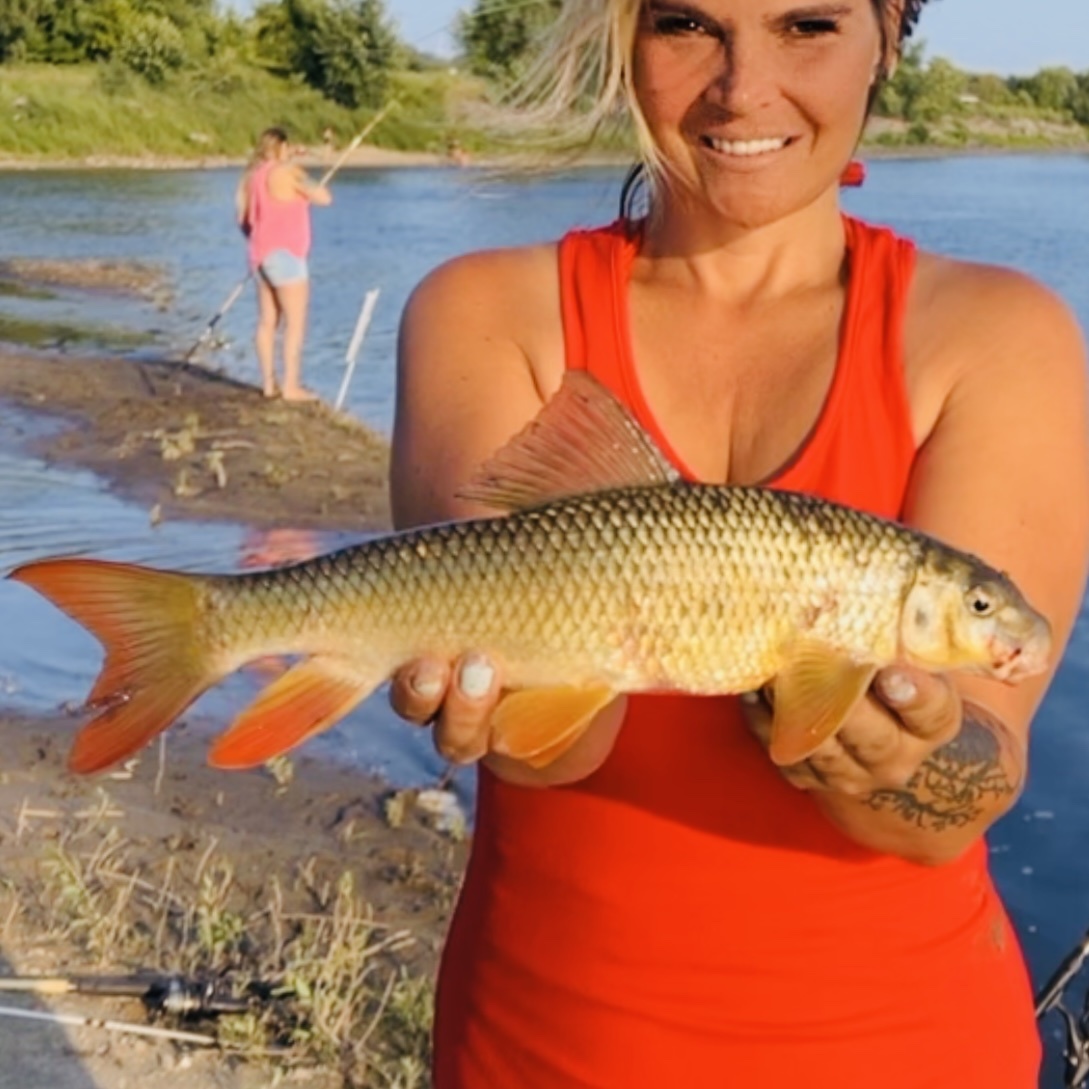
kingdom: Animalia
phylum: Chordata
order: Cypriniformes
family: Catostomidae
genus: Moxostoma
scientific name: Moxostoma macrolepidotum
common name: Shorthead redhorse
